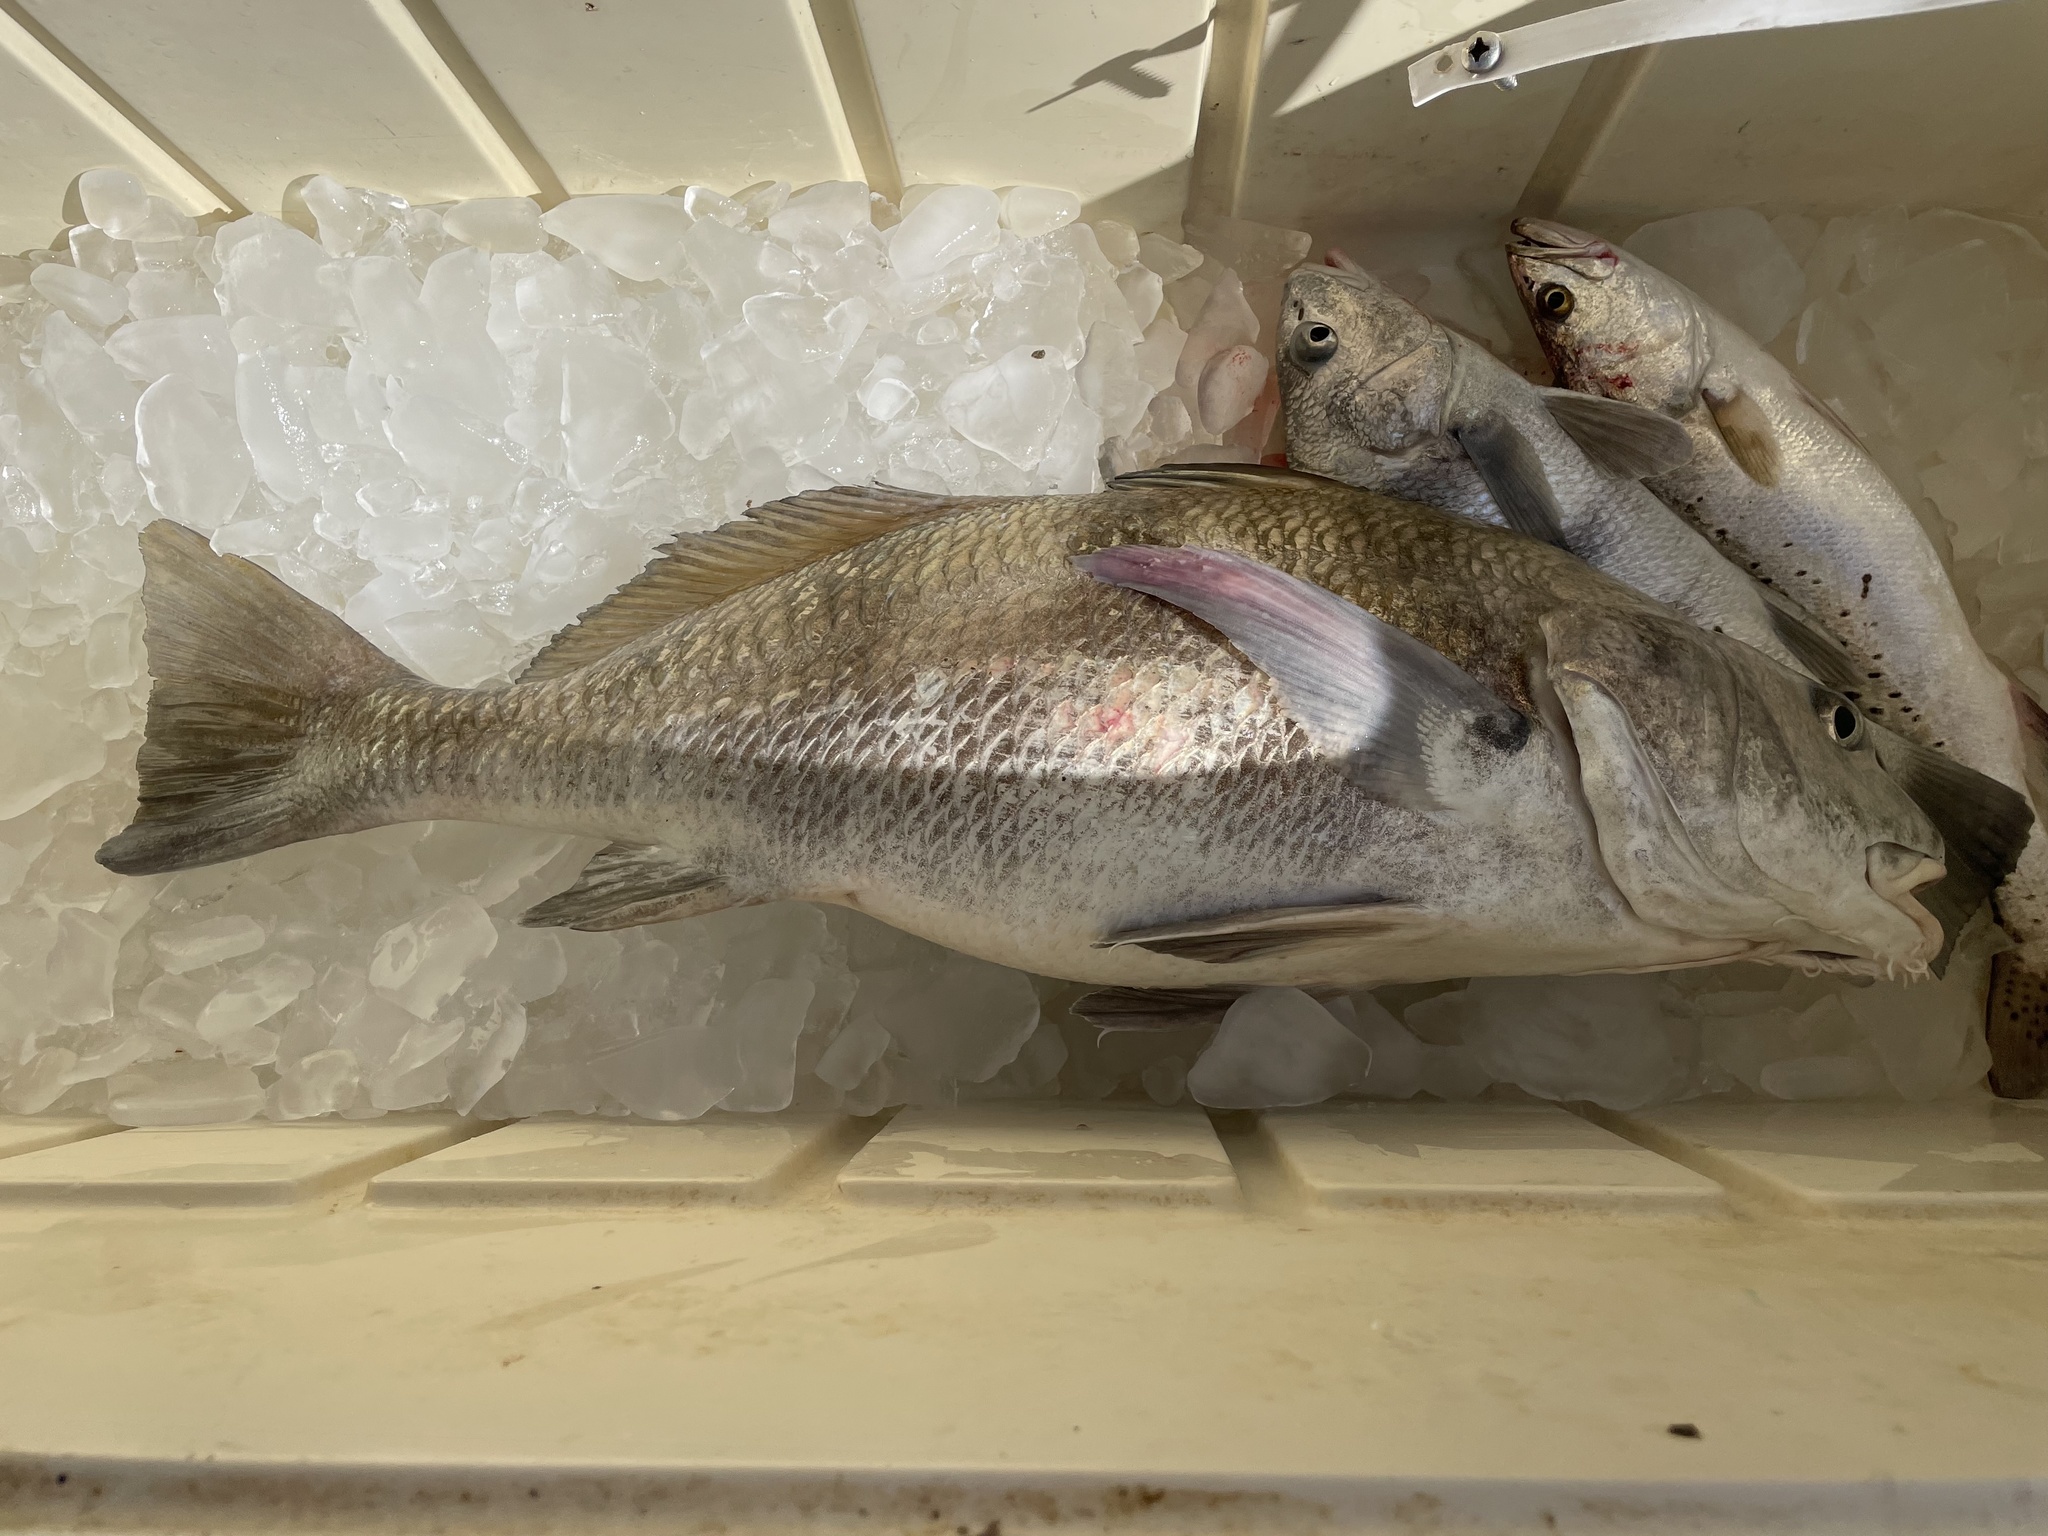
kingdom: Animalia
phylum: Chordata
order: Perciformes
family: Sciaenidae
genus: Pogonias
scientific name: Pogonias cromis
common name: Black drum
